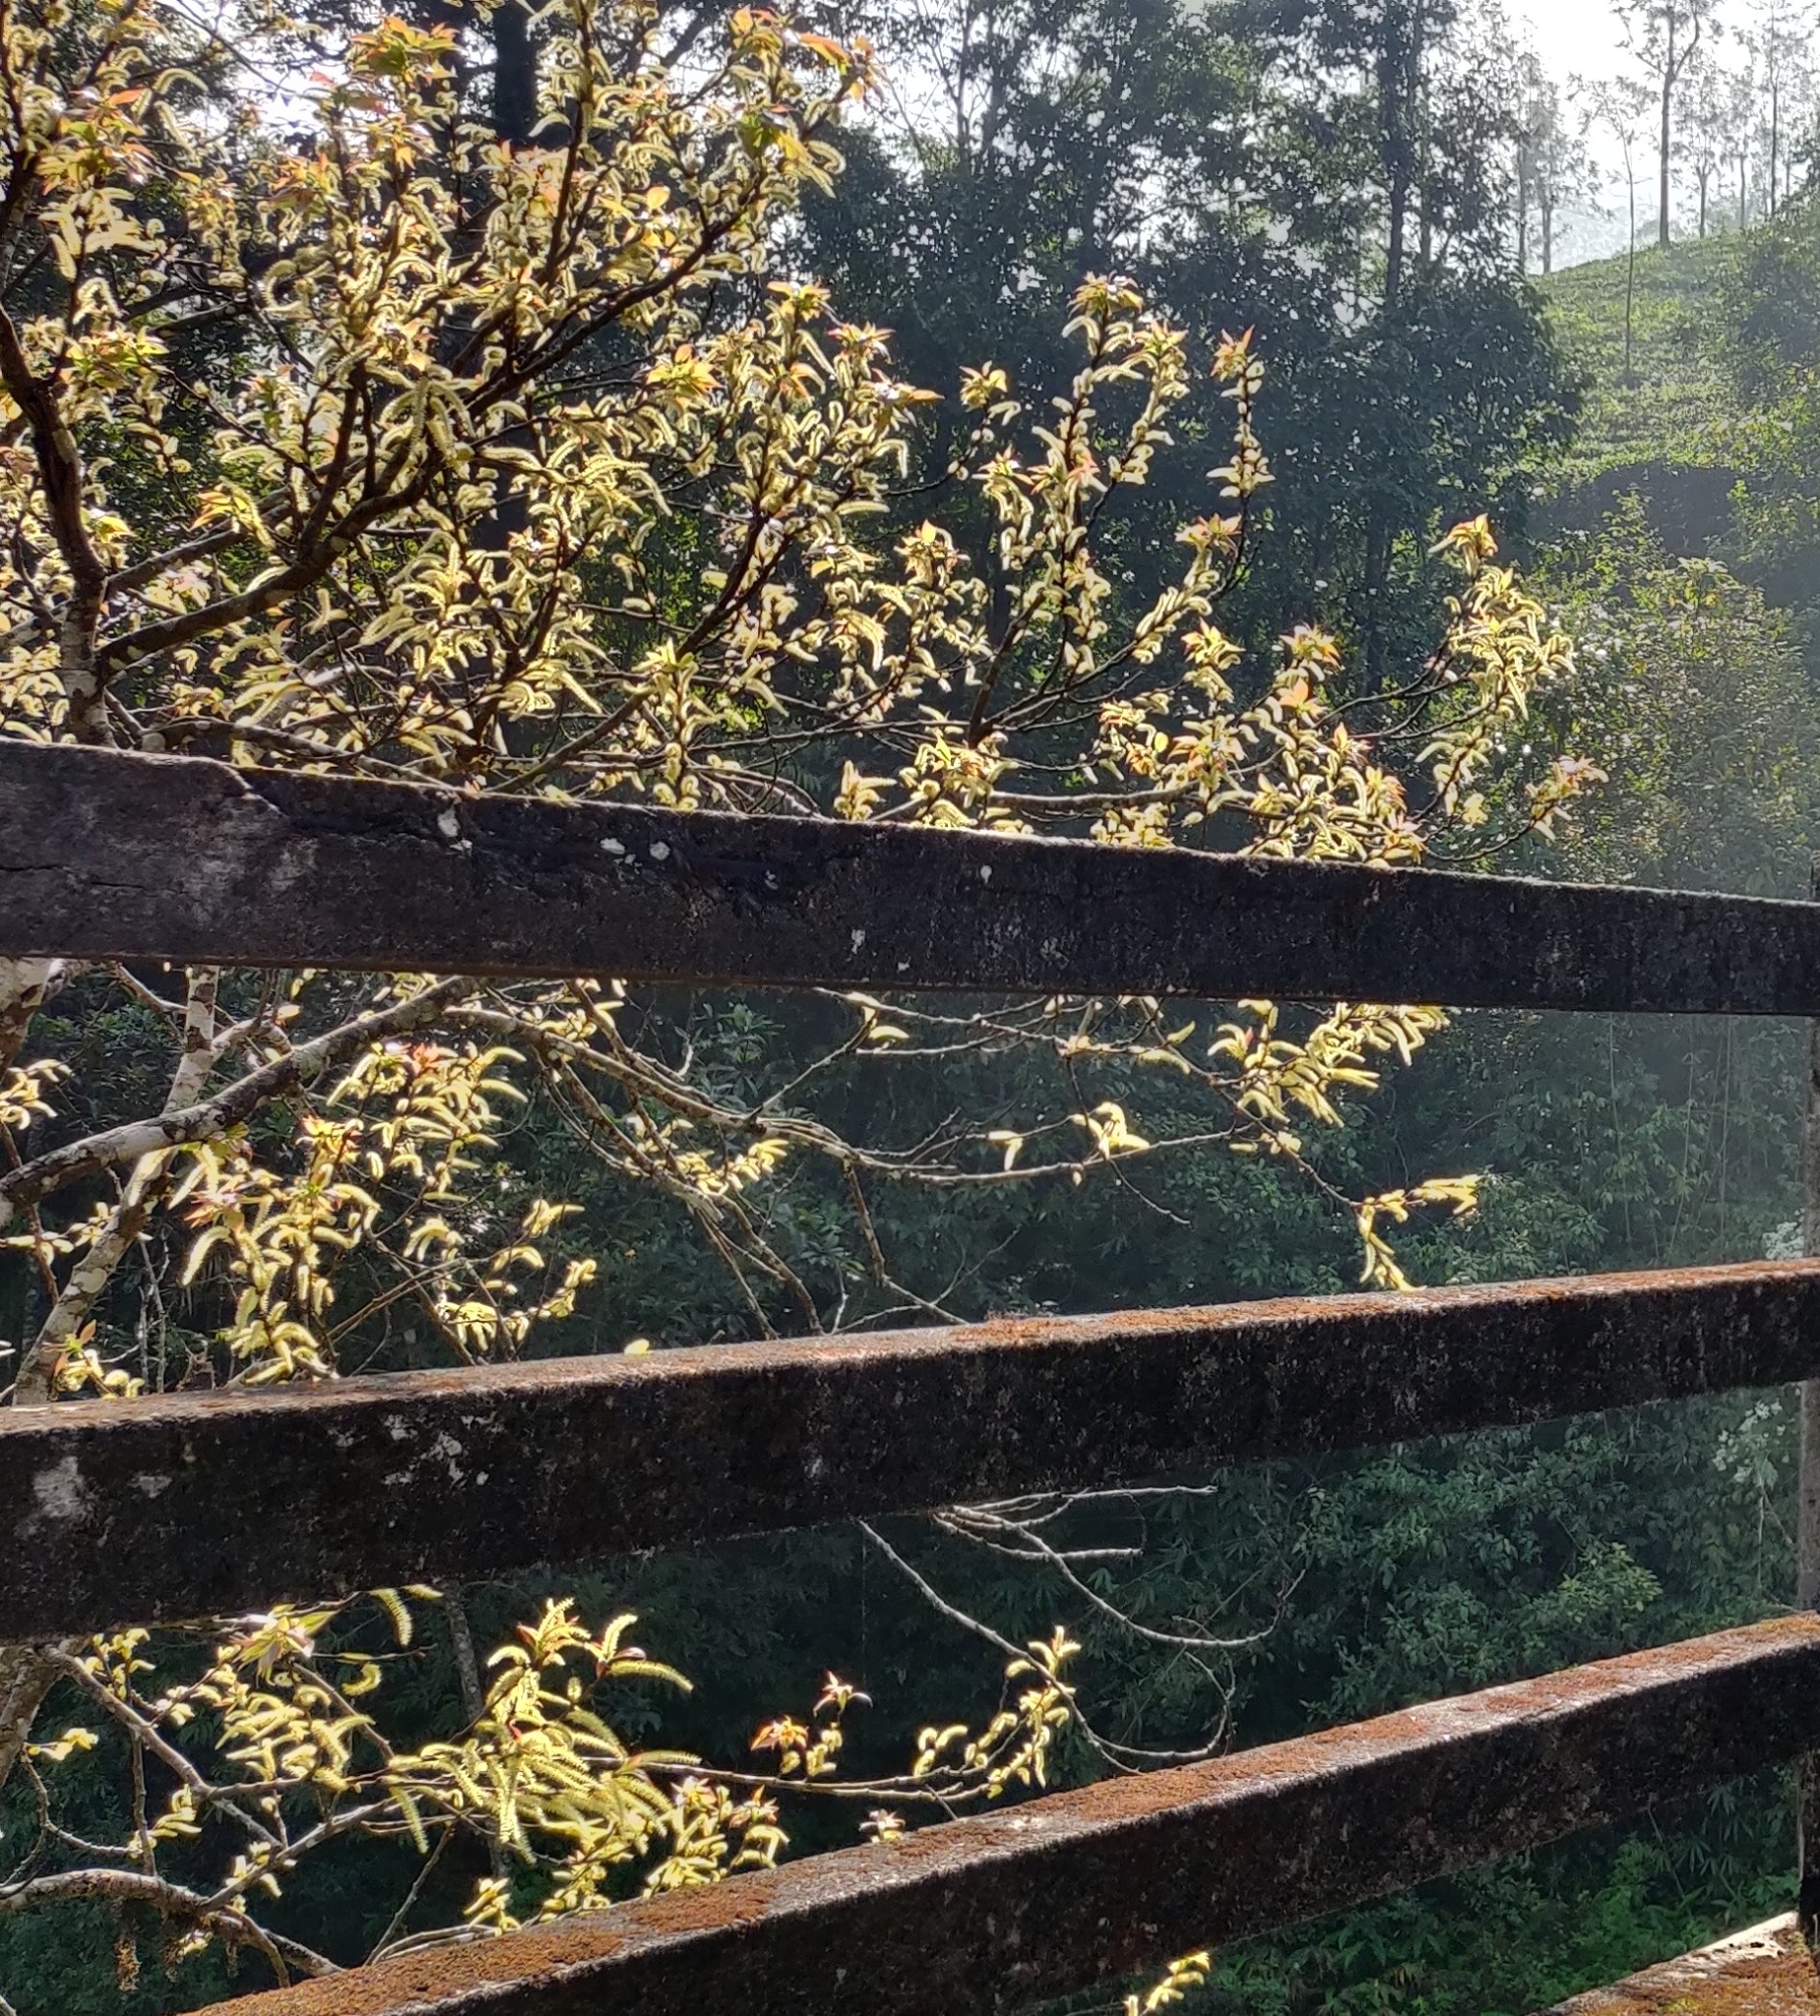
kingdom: Plantae
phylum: Tracheophyta
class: Magnoliopsida
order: Malpighiales
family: Salicaceae
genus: Salix
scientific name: Salix tetrasperma
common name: Indian willow
